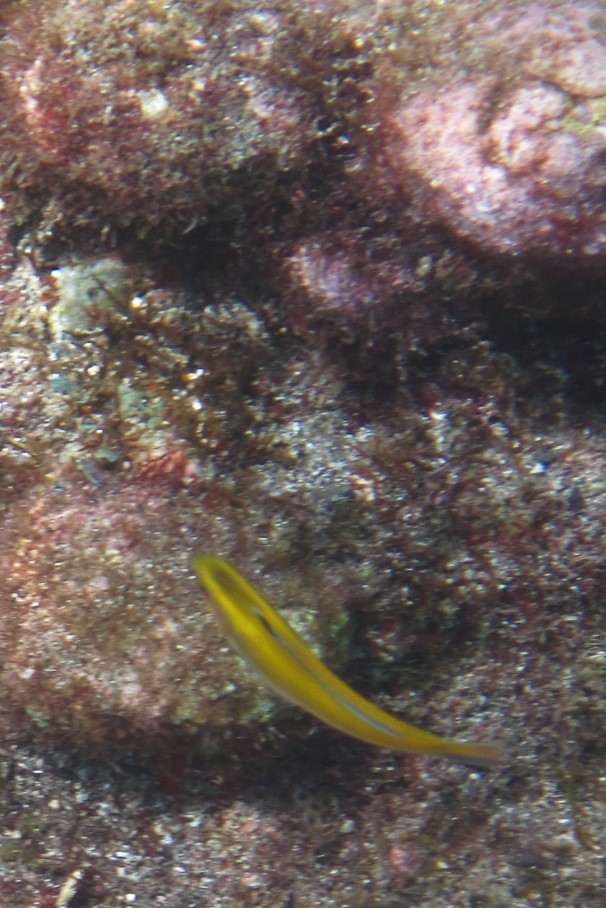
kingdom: Animalia
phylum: Chordata
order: Perciformes
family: Labridae
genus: Thalassoma
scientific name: Thalassoma bifasciatum
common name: Bluehead wrasse
